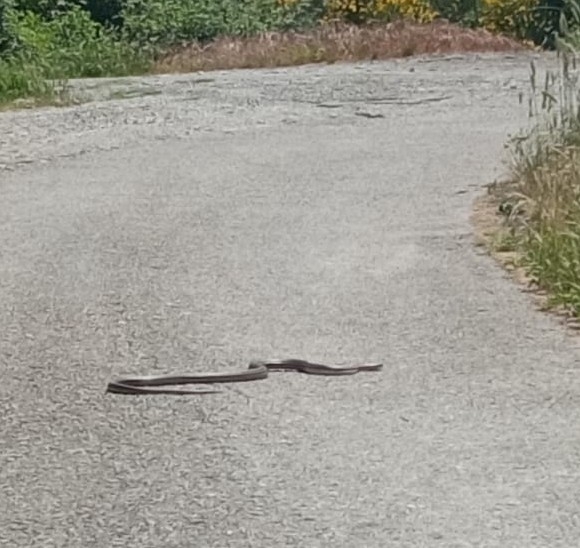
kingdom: Animalia
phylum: Chordata
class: Squamata
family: Colubridae
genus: Elaphe
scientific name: Elaphe quatuorlineata
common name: Four-lined snake
